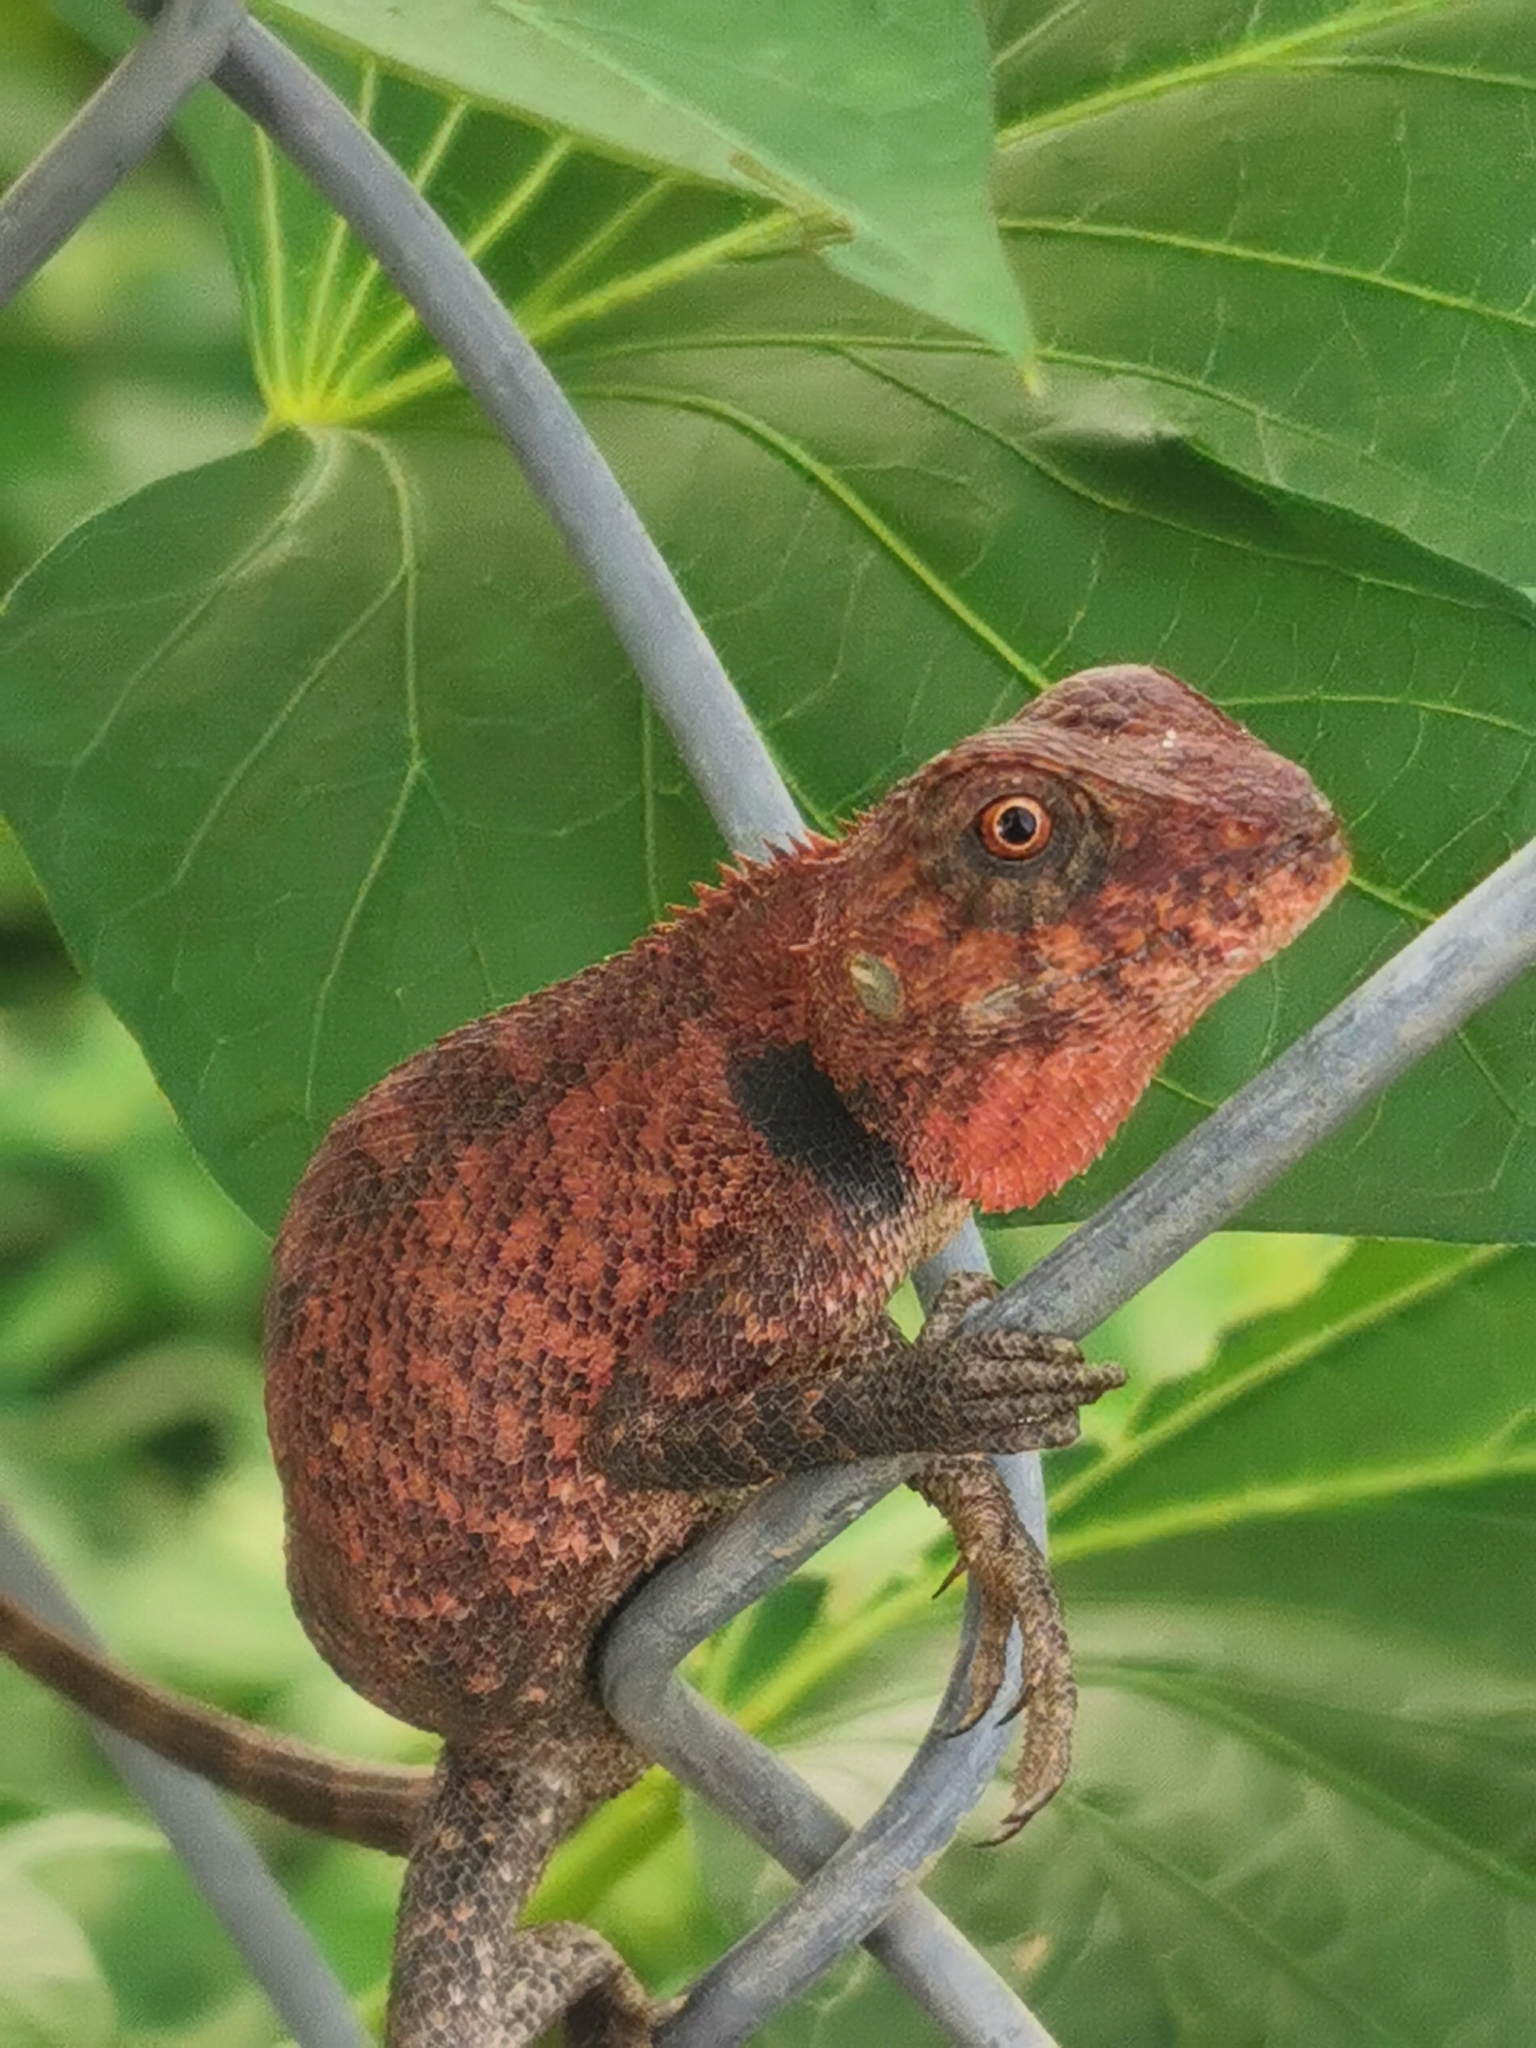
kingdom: Animalia
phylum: Chordata
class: Squamata
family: Agamidae
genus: Calotes
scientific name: Calotes versicolor
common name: Oriental garden lizard
